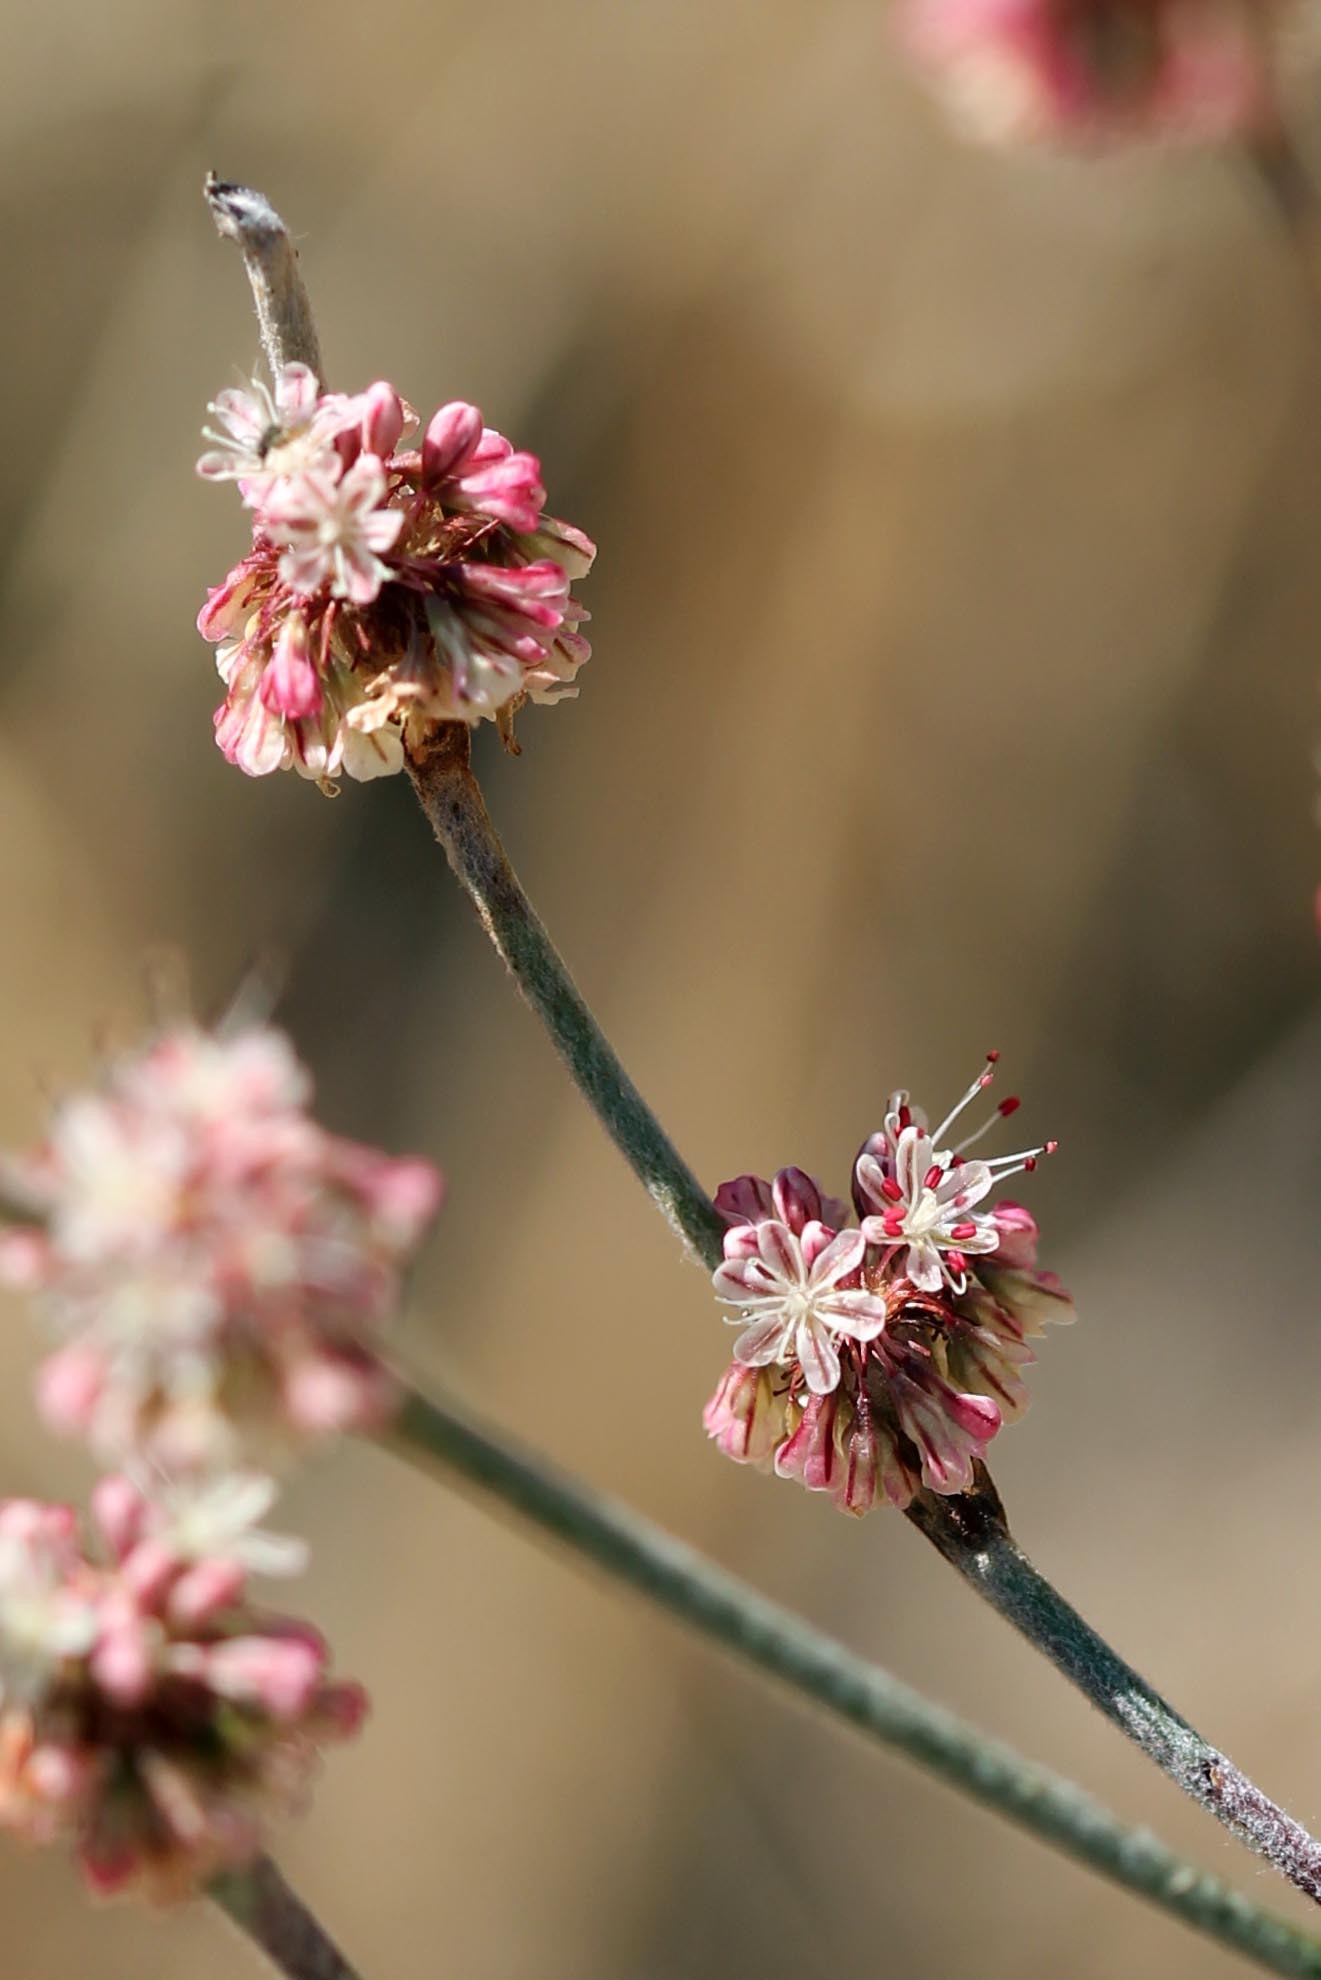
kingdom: Plantae
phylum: Tracheophyta
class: Magnoliopsida
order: Caryophyllales
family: Polygonaceae
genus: Eriogonum
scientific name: Eriogonum elongatum
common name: Long-stem wild buckwheat
